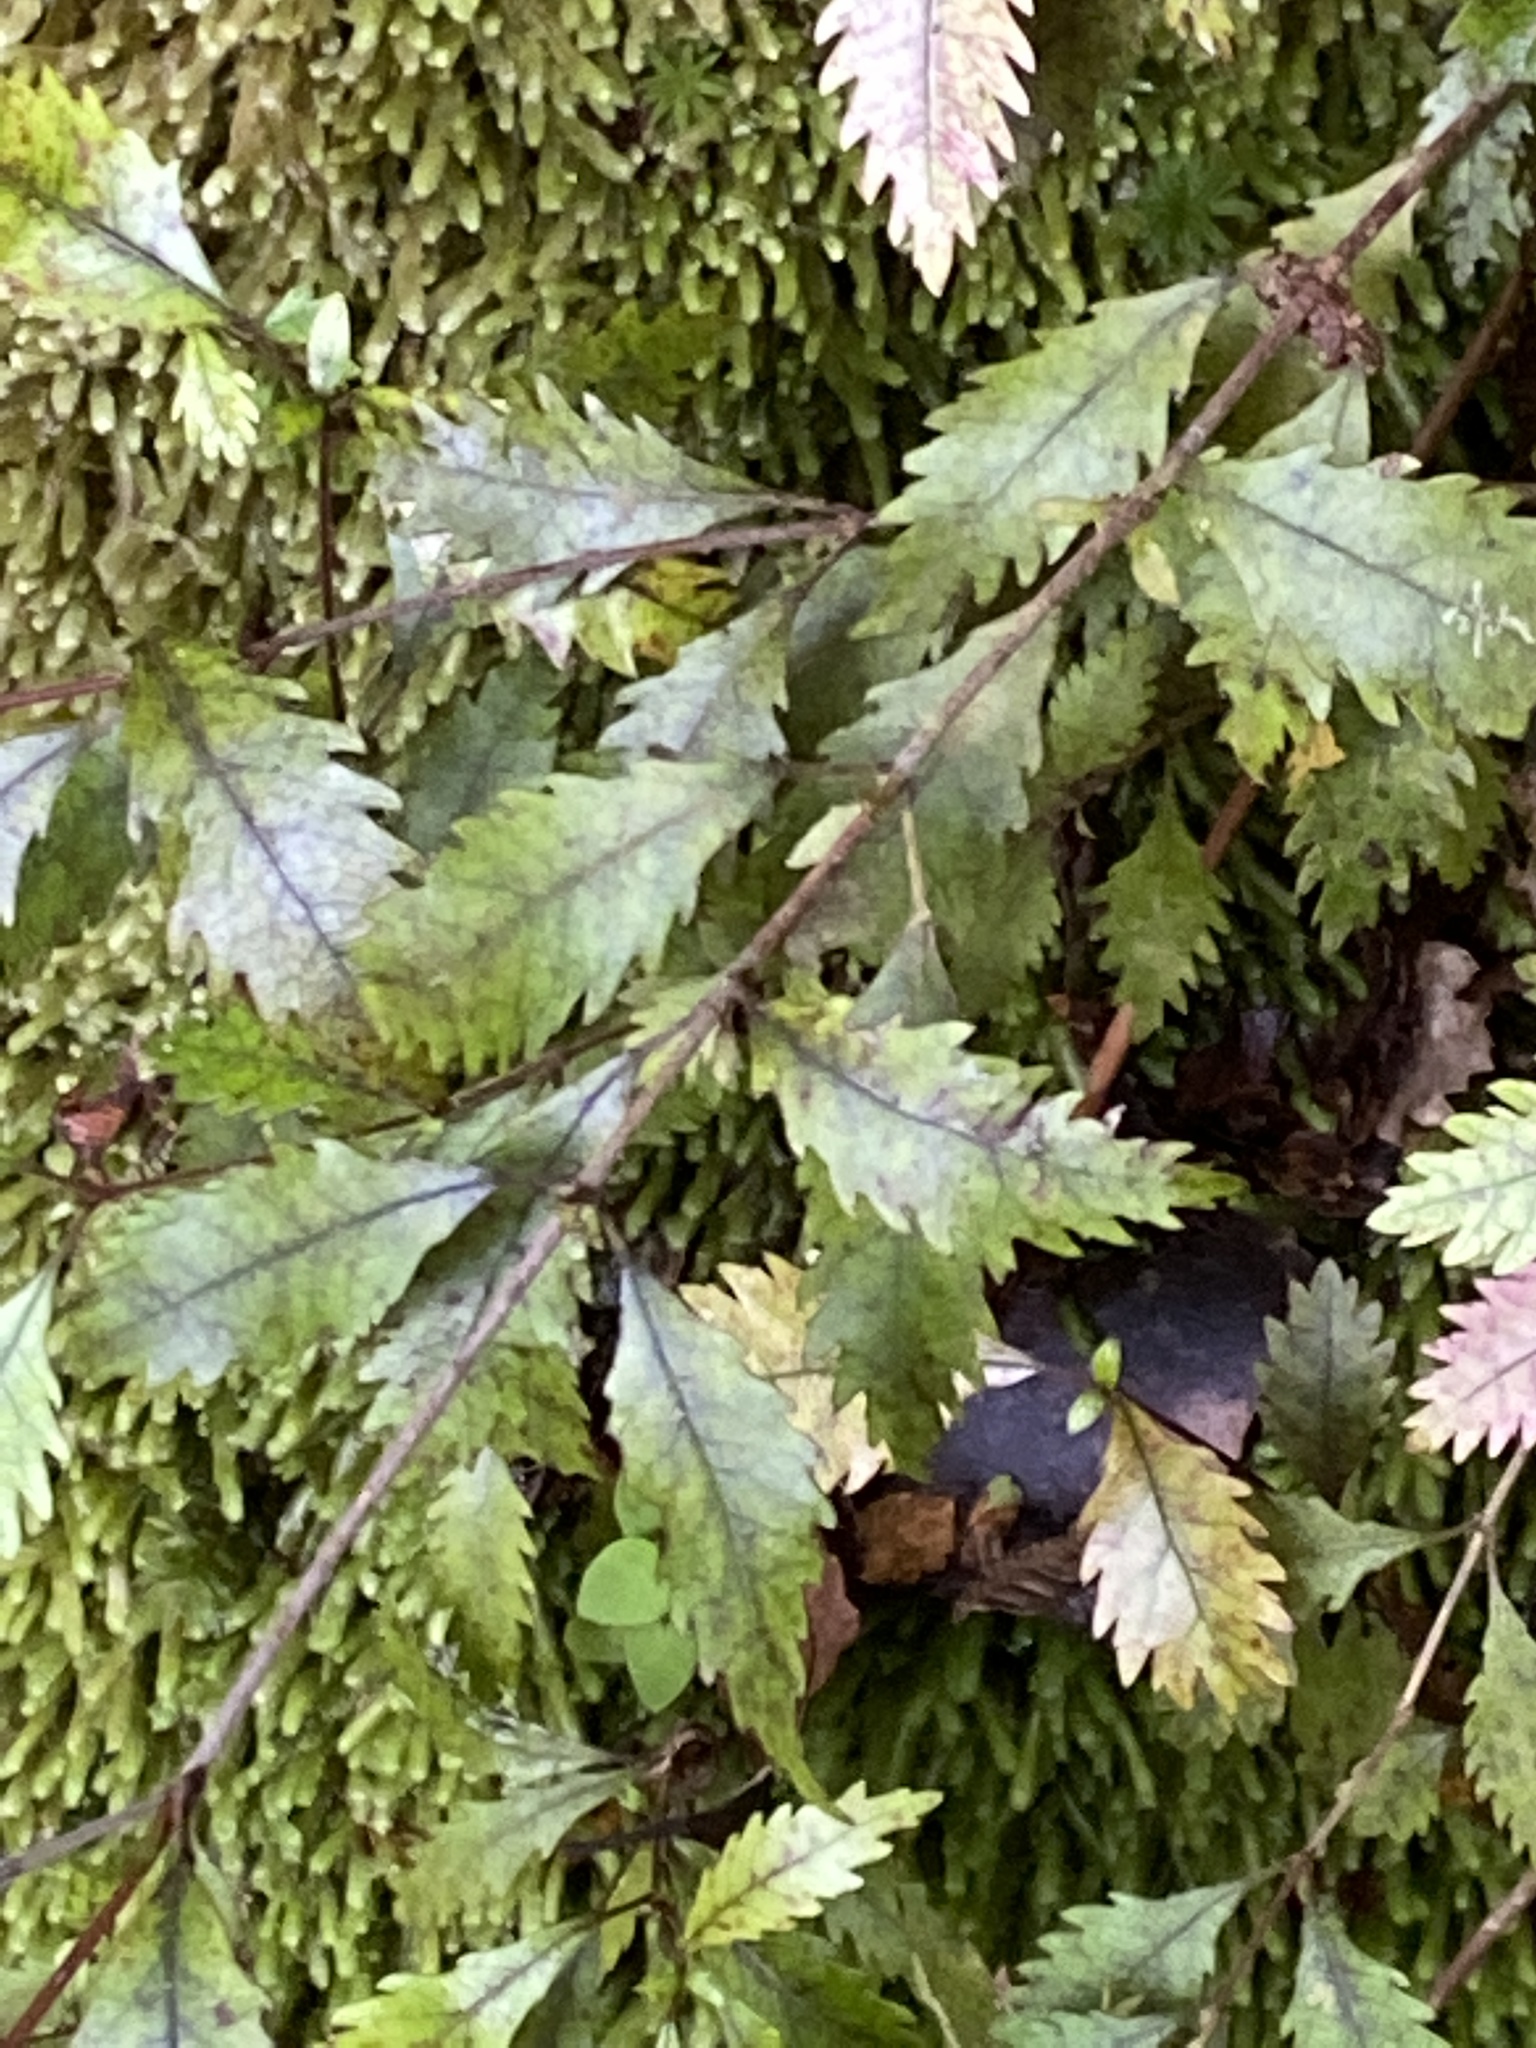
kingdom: Plantae
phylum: Tracheophyta
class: Magnoliopsida
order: Oxalidales
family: Cunoniaceae
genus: Pterophylla
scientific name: Pterophylla racemosa
